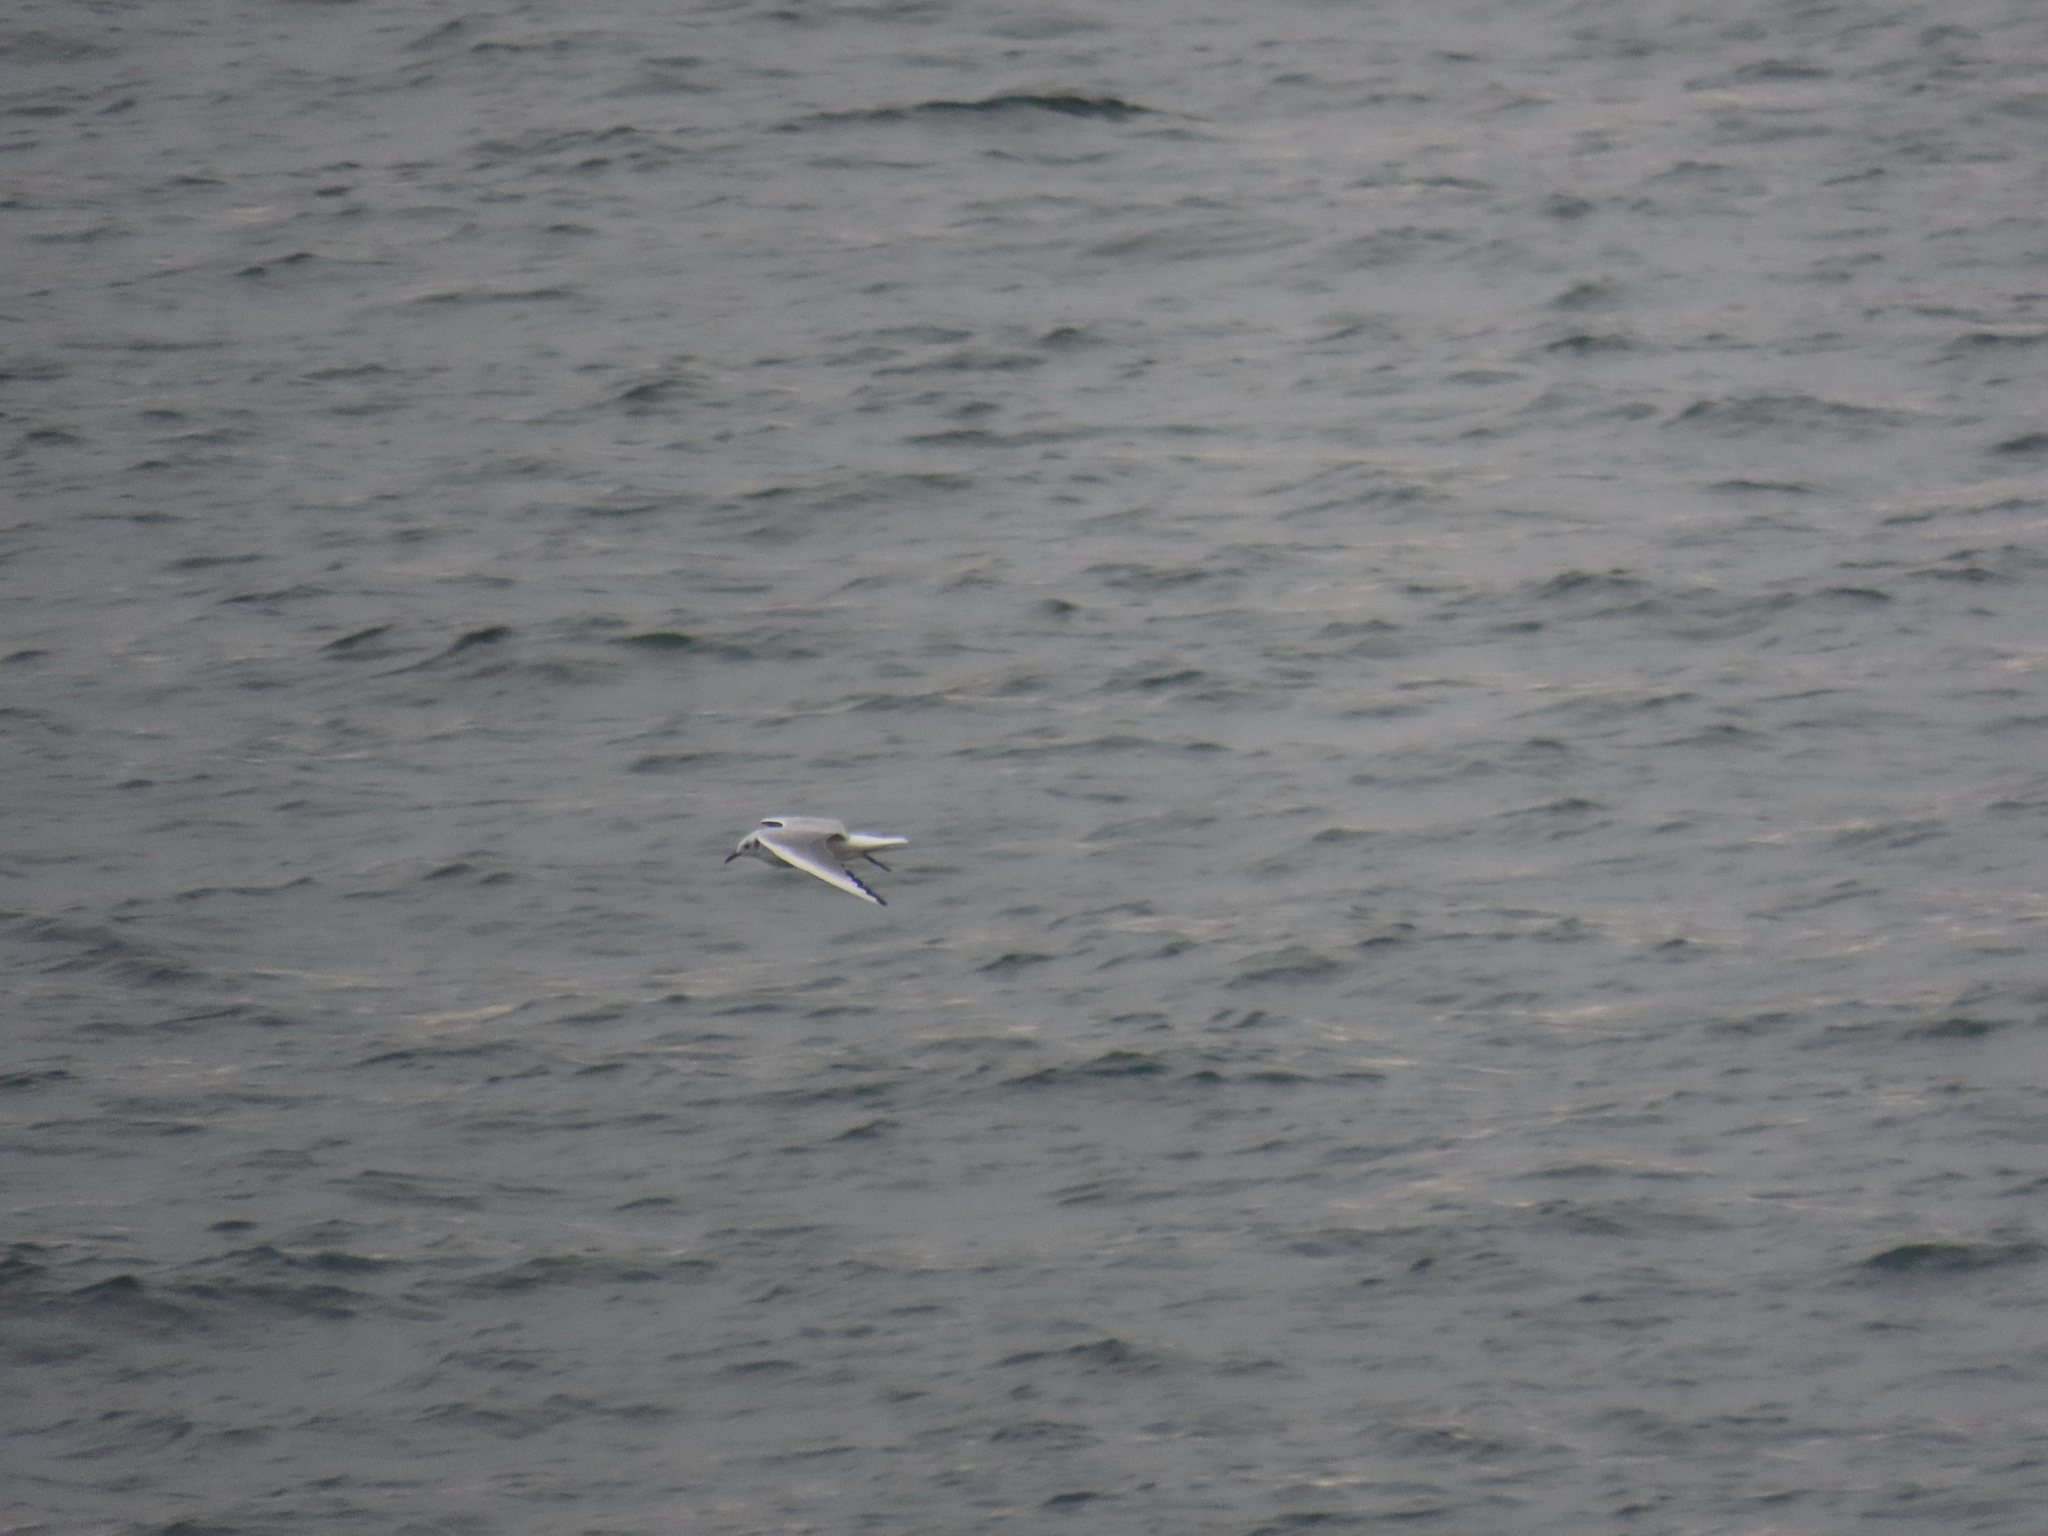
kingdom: Animalia
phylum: Chordata
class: Aves
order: Charadriiformes
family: Laridae
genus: Chroicocephalus
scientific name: Chroicocephalus philadelphia
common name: Bonaparte's gull
